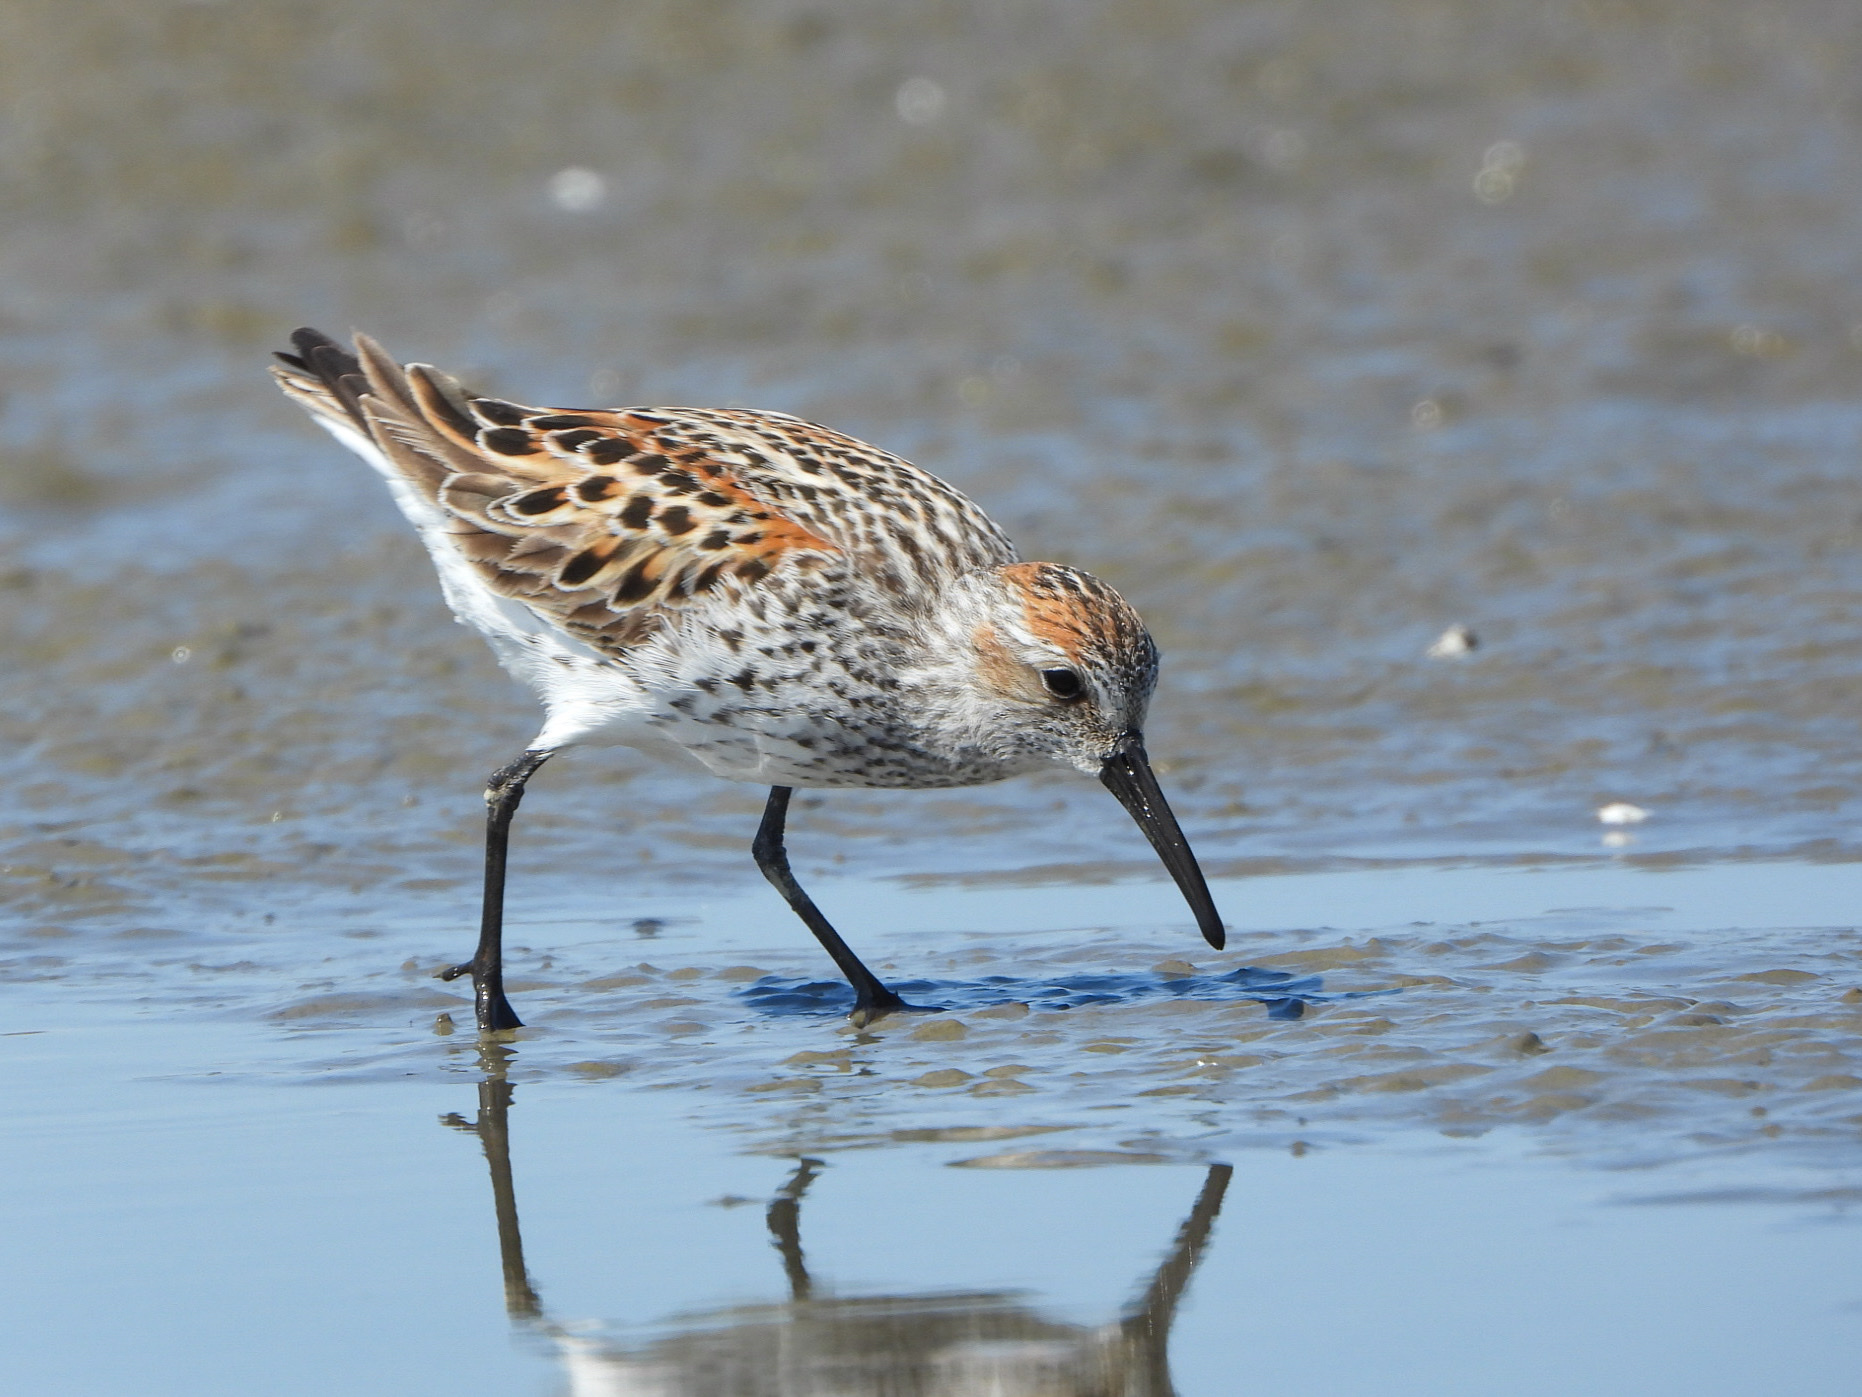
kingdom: Animalia
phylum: Chordata
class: Aves
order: Charadriiformes
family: Scolopacidae
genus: Calidris
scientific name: Calidris mauri
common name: Western sandpiper
